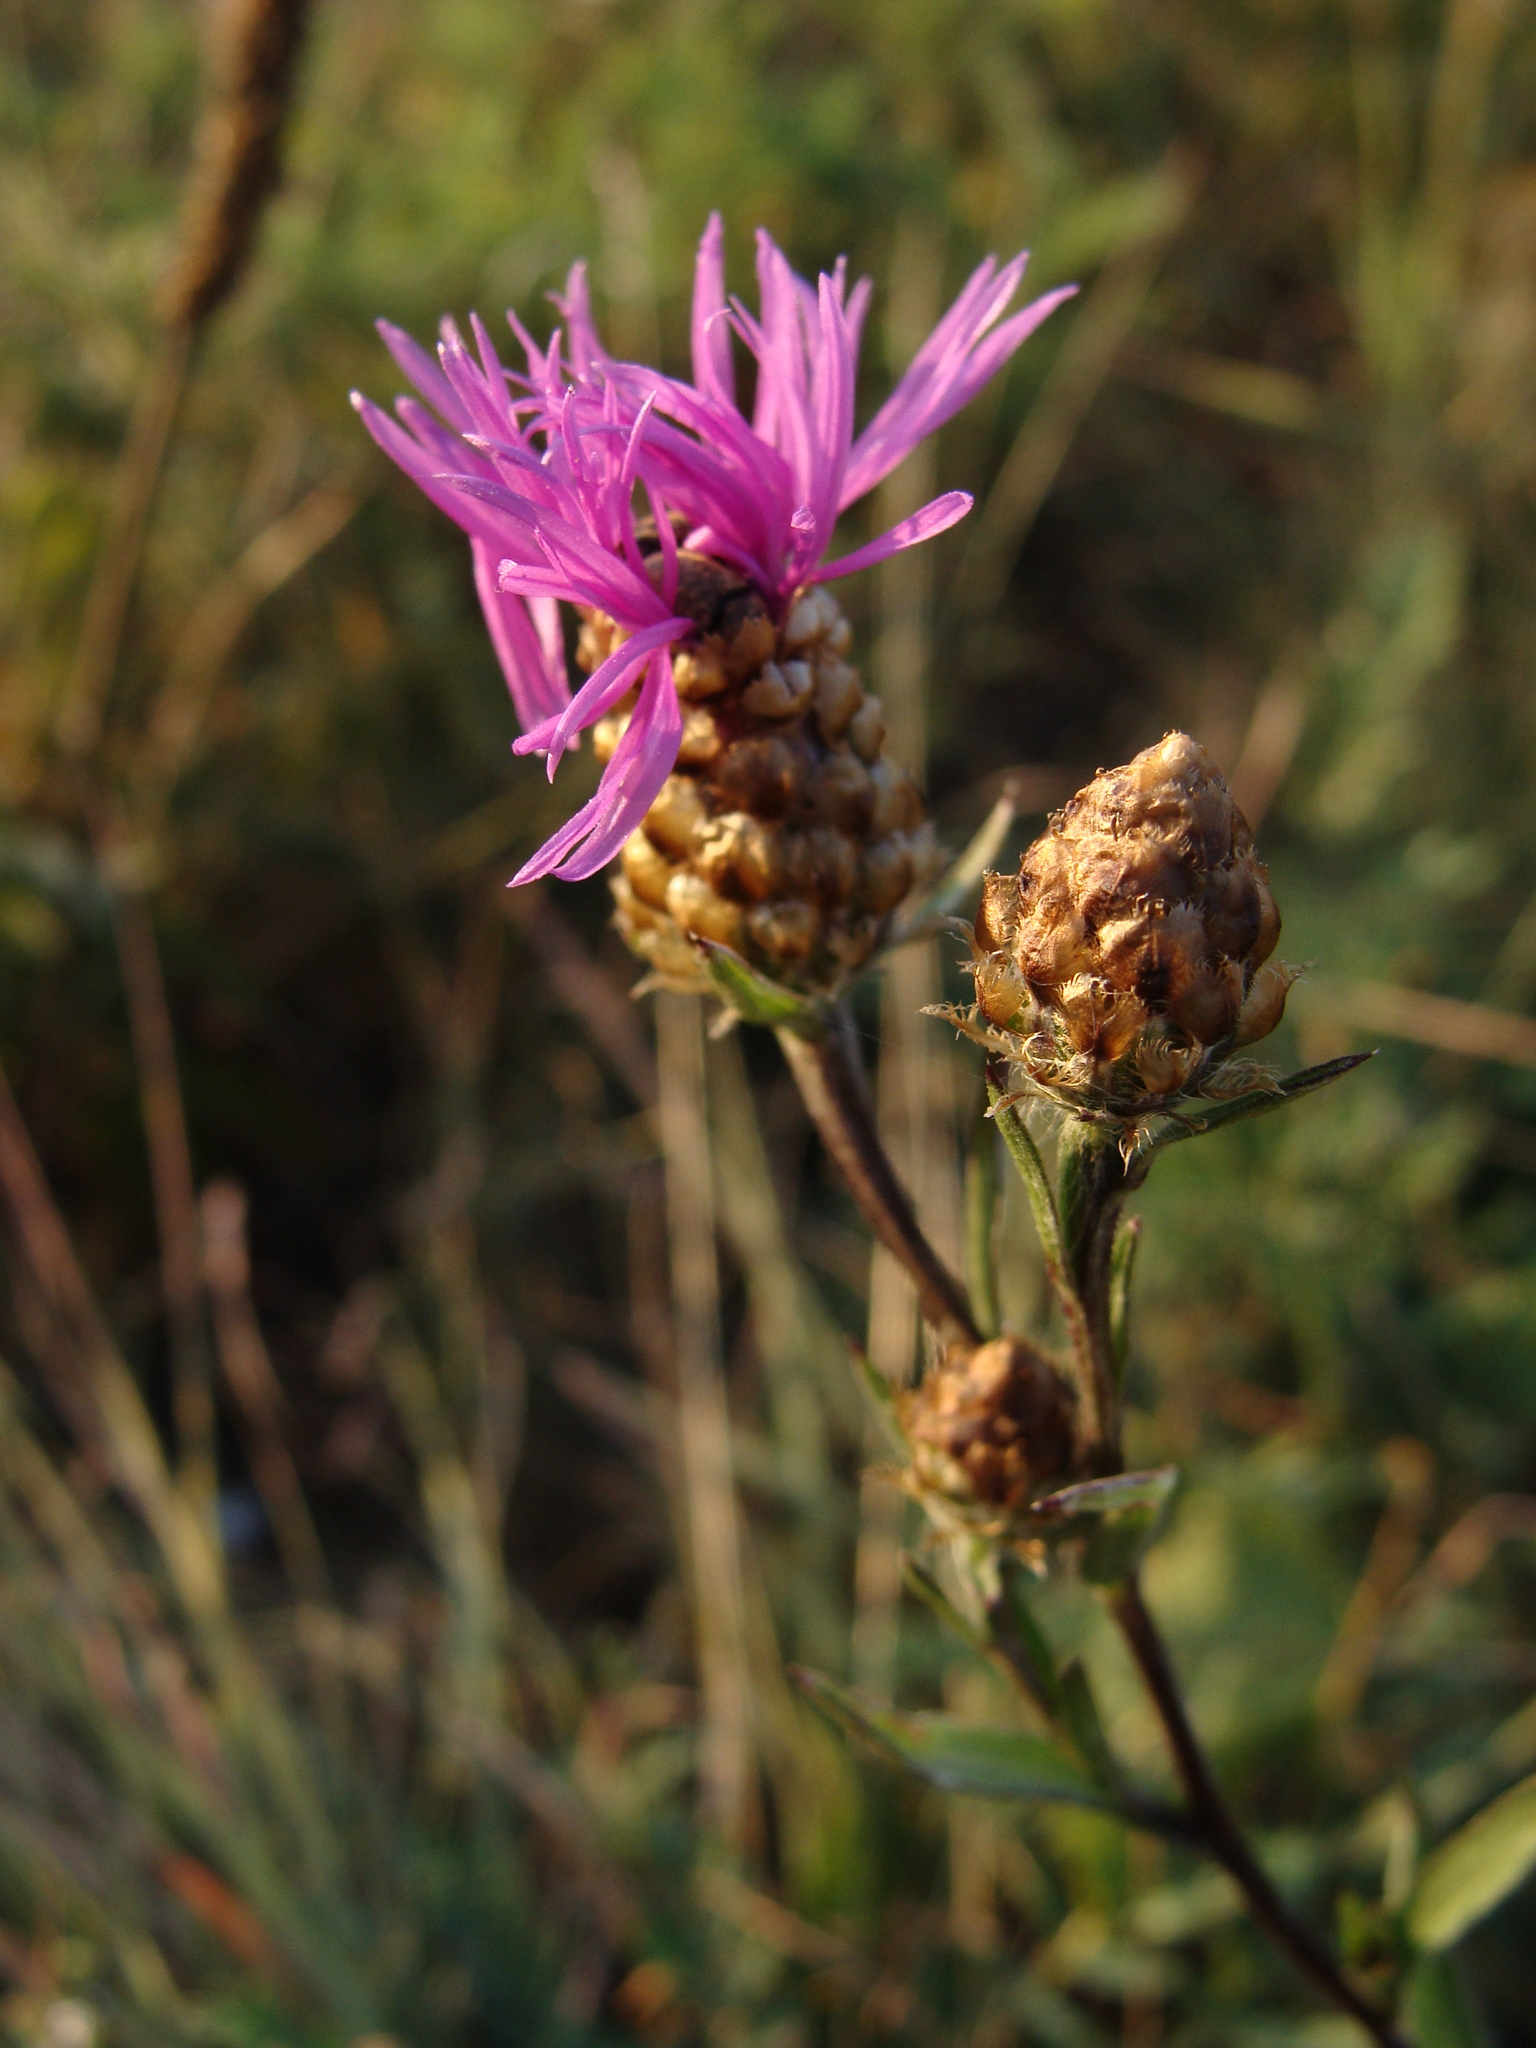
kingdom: Plantae
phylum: Tracheophyta
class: Magnoliopsida
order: Asterales
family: Asteraceae
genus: Centaurea
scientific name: Centaurea jacea
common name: Brown knapweed
